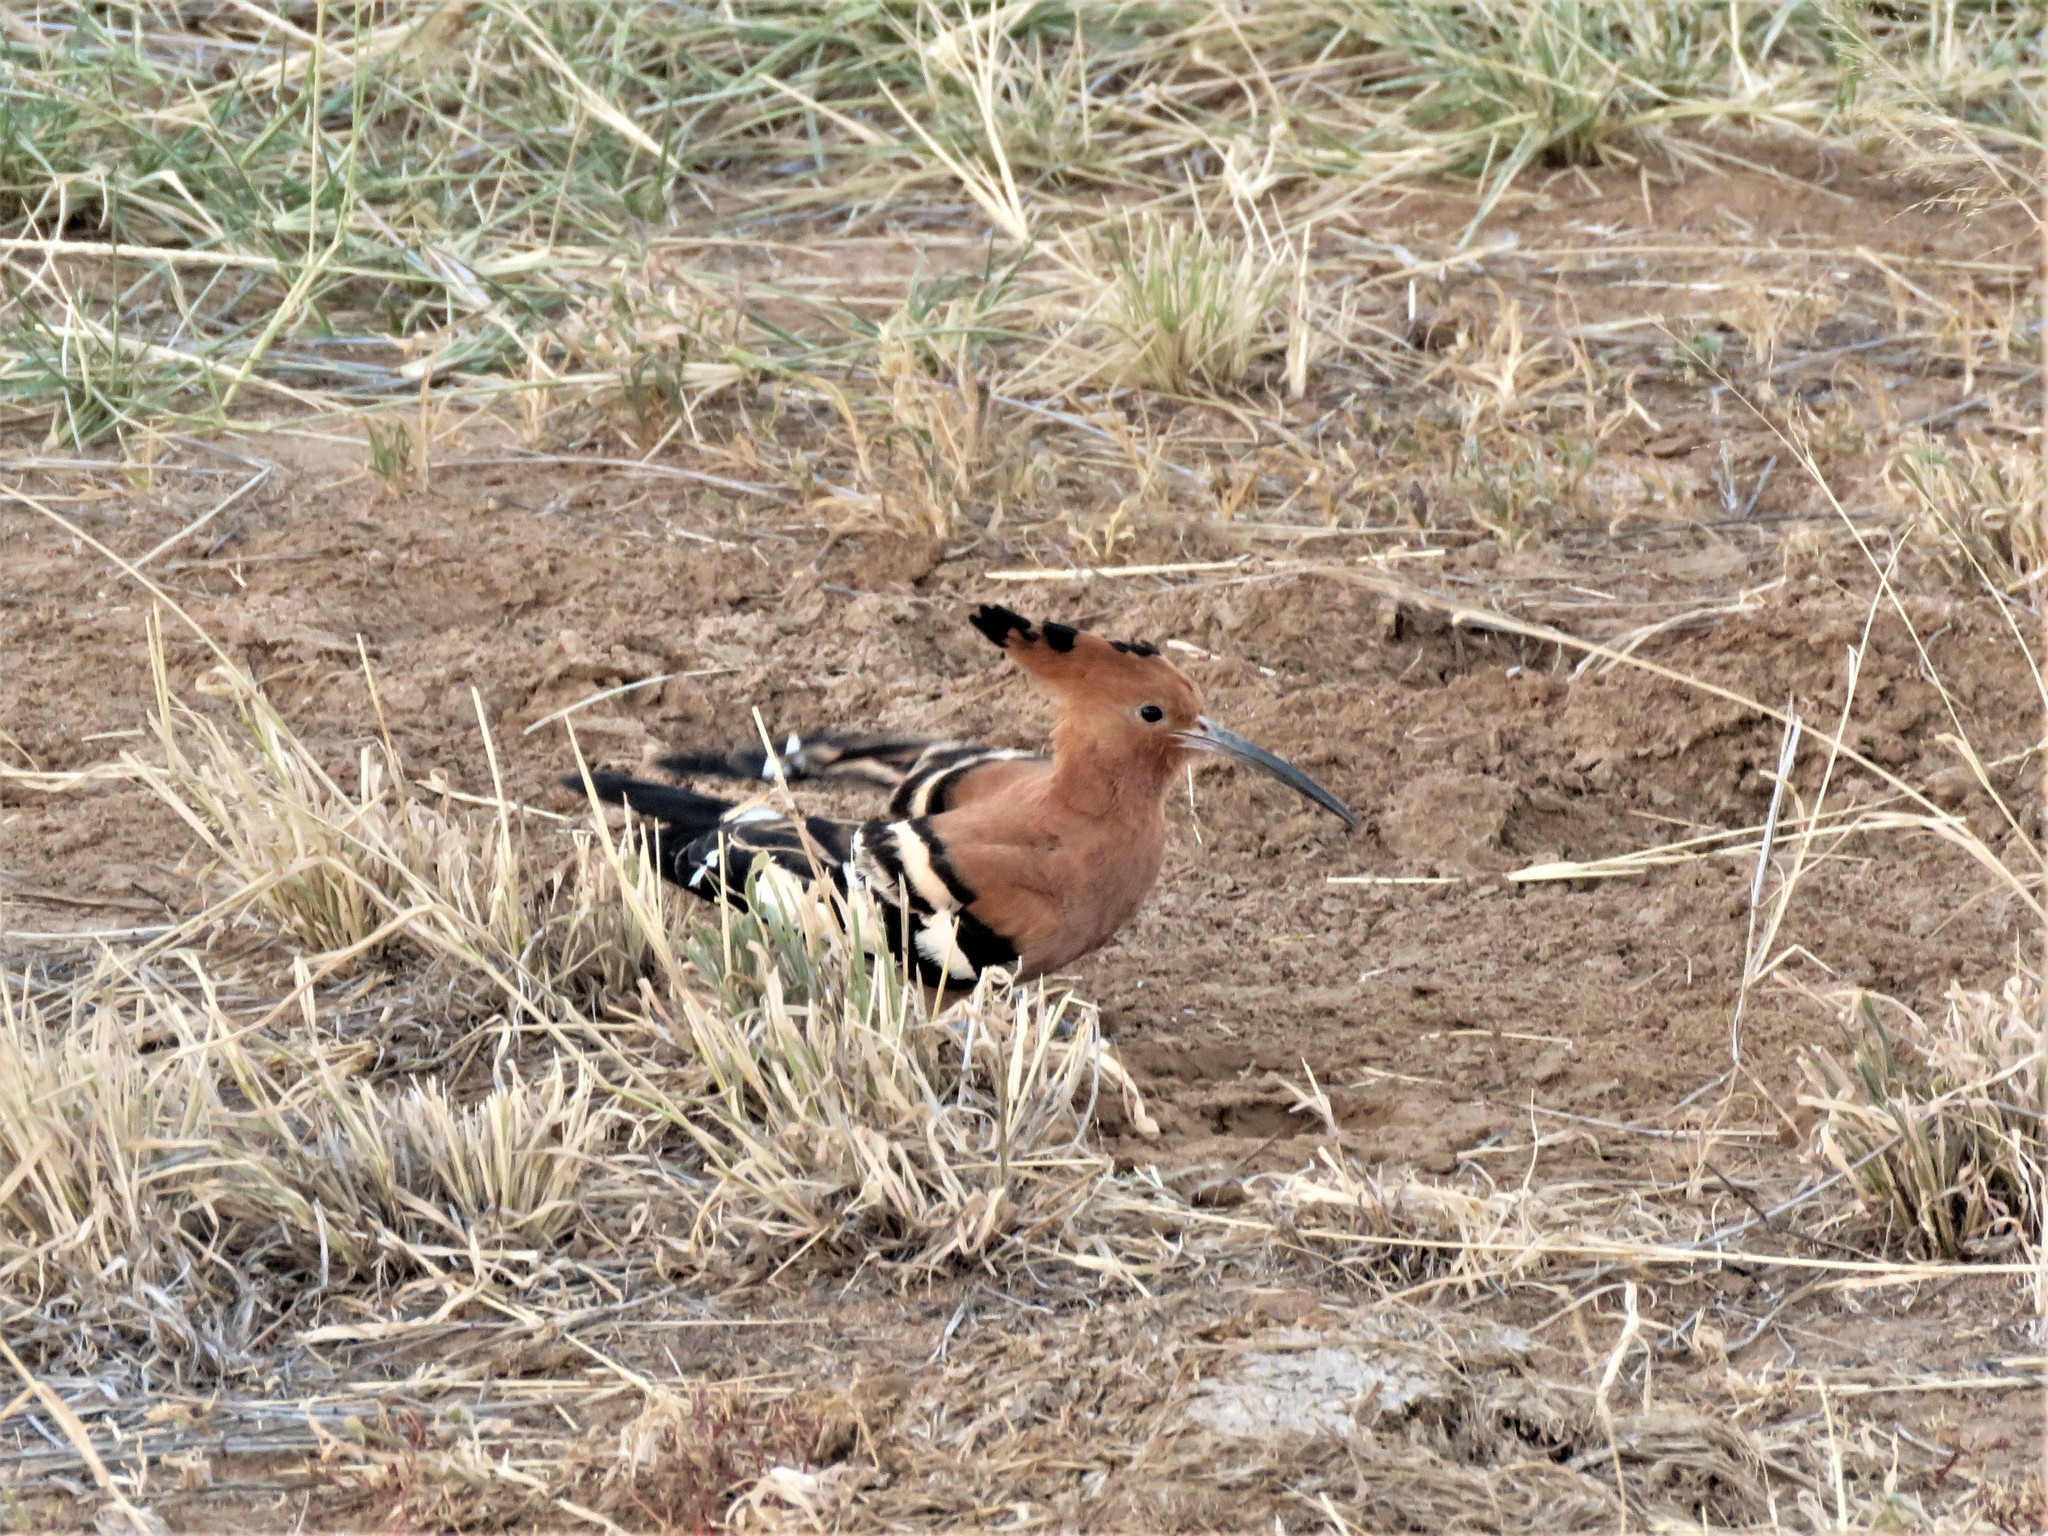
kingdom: Animalia
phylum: Chordata
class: Aves
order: Bucerotiformes
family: Upupidae
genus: Upupa
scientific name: Upupa africana
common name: African hoopoe
